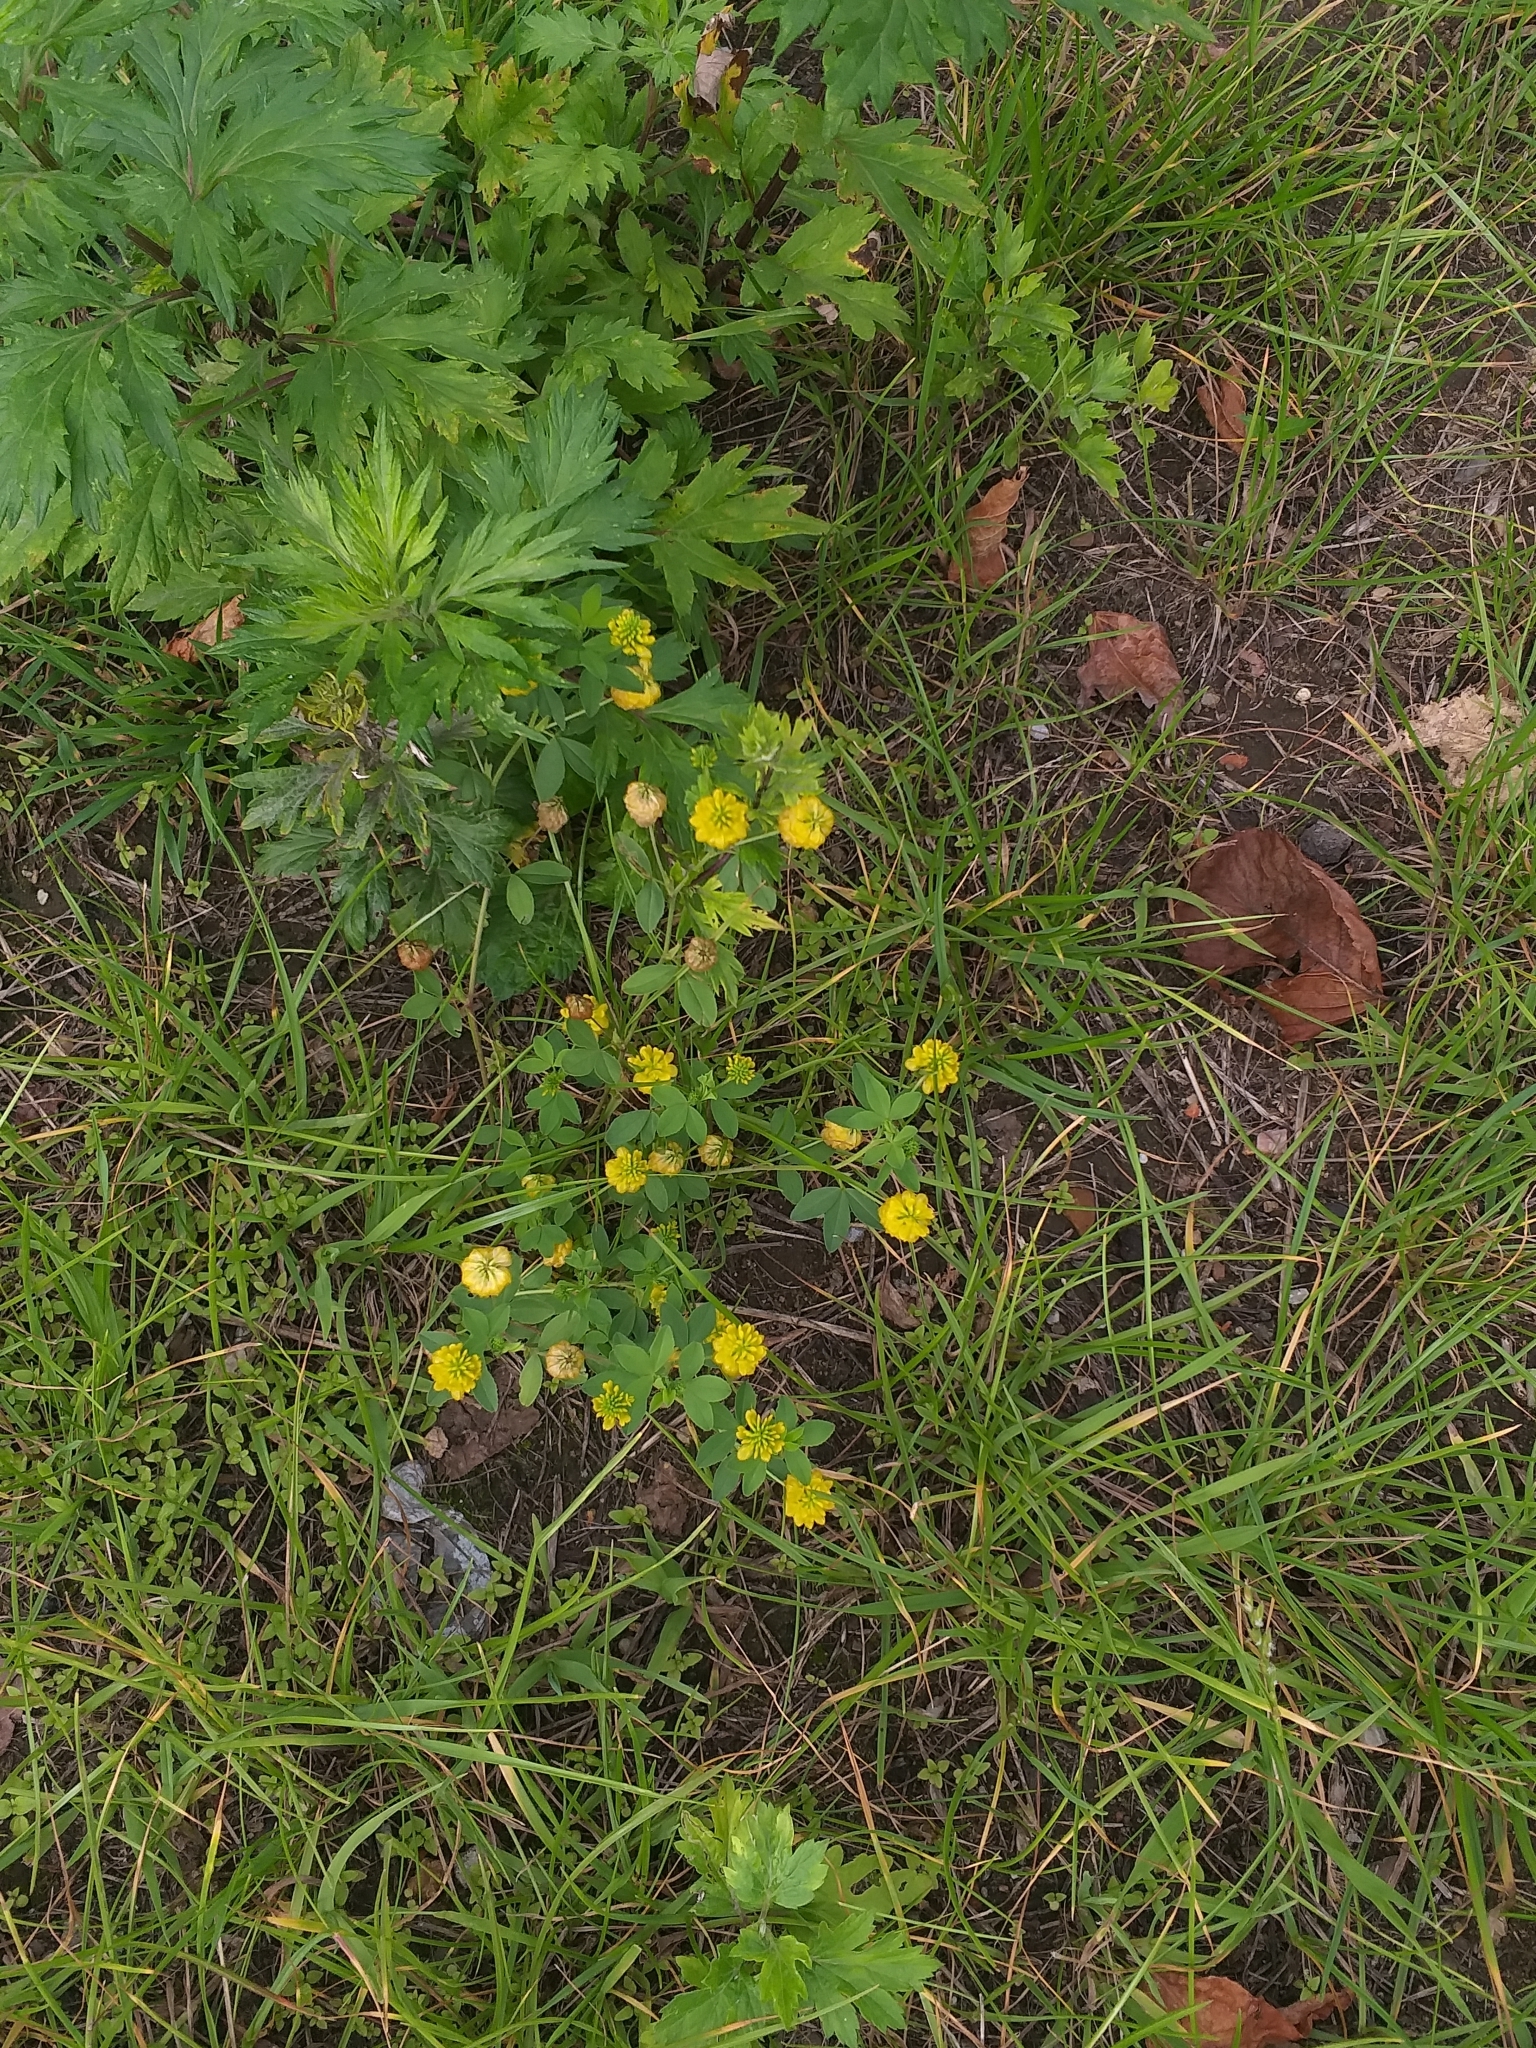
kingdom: Plantae
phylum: Tracheophyta
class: Magnoliopsida
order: Fabales
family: Fabaceae
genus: Trifolium
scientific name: Trifolium aureum
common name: Golden clover
